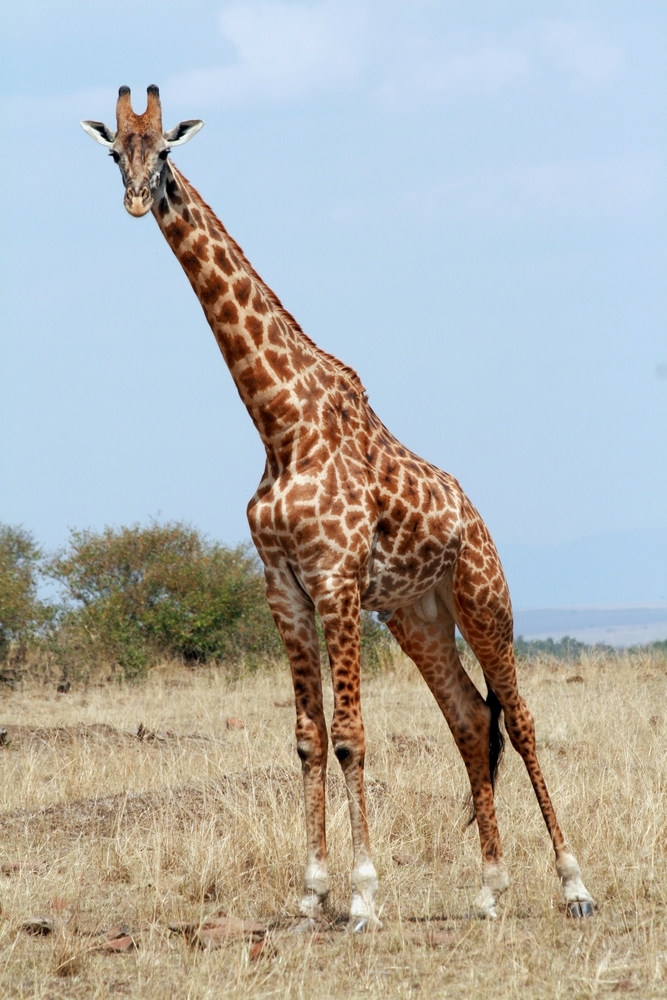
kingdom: Animalia
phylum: Chordata
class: Mammalia
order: Artiodactyla
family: Giraffidae
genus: Giraffa
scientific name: Giraffa tippelskirchi
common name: Masai giraffe
